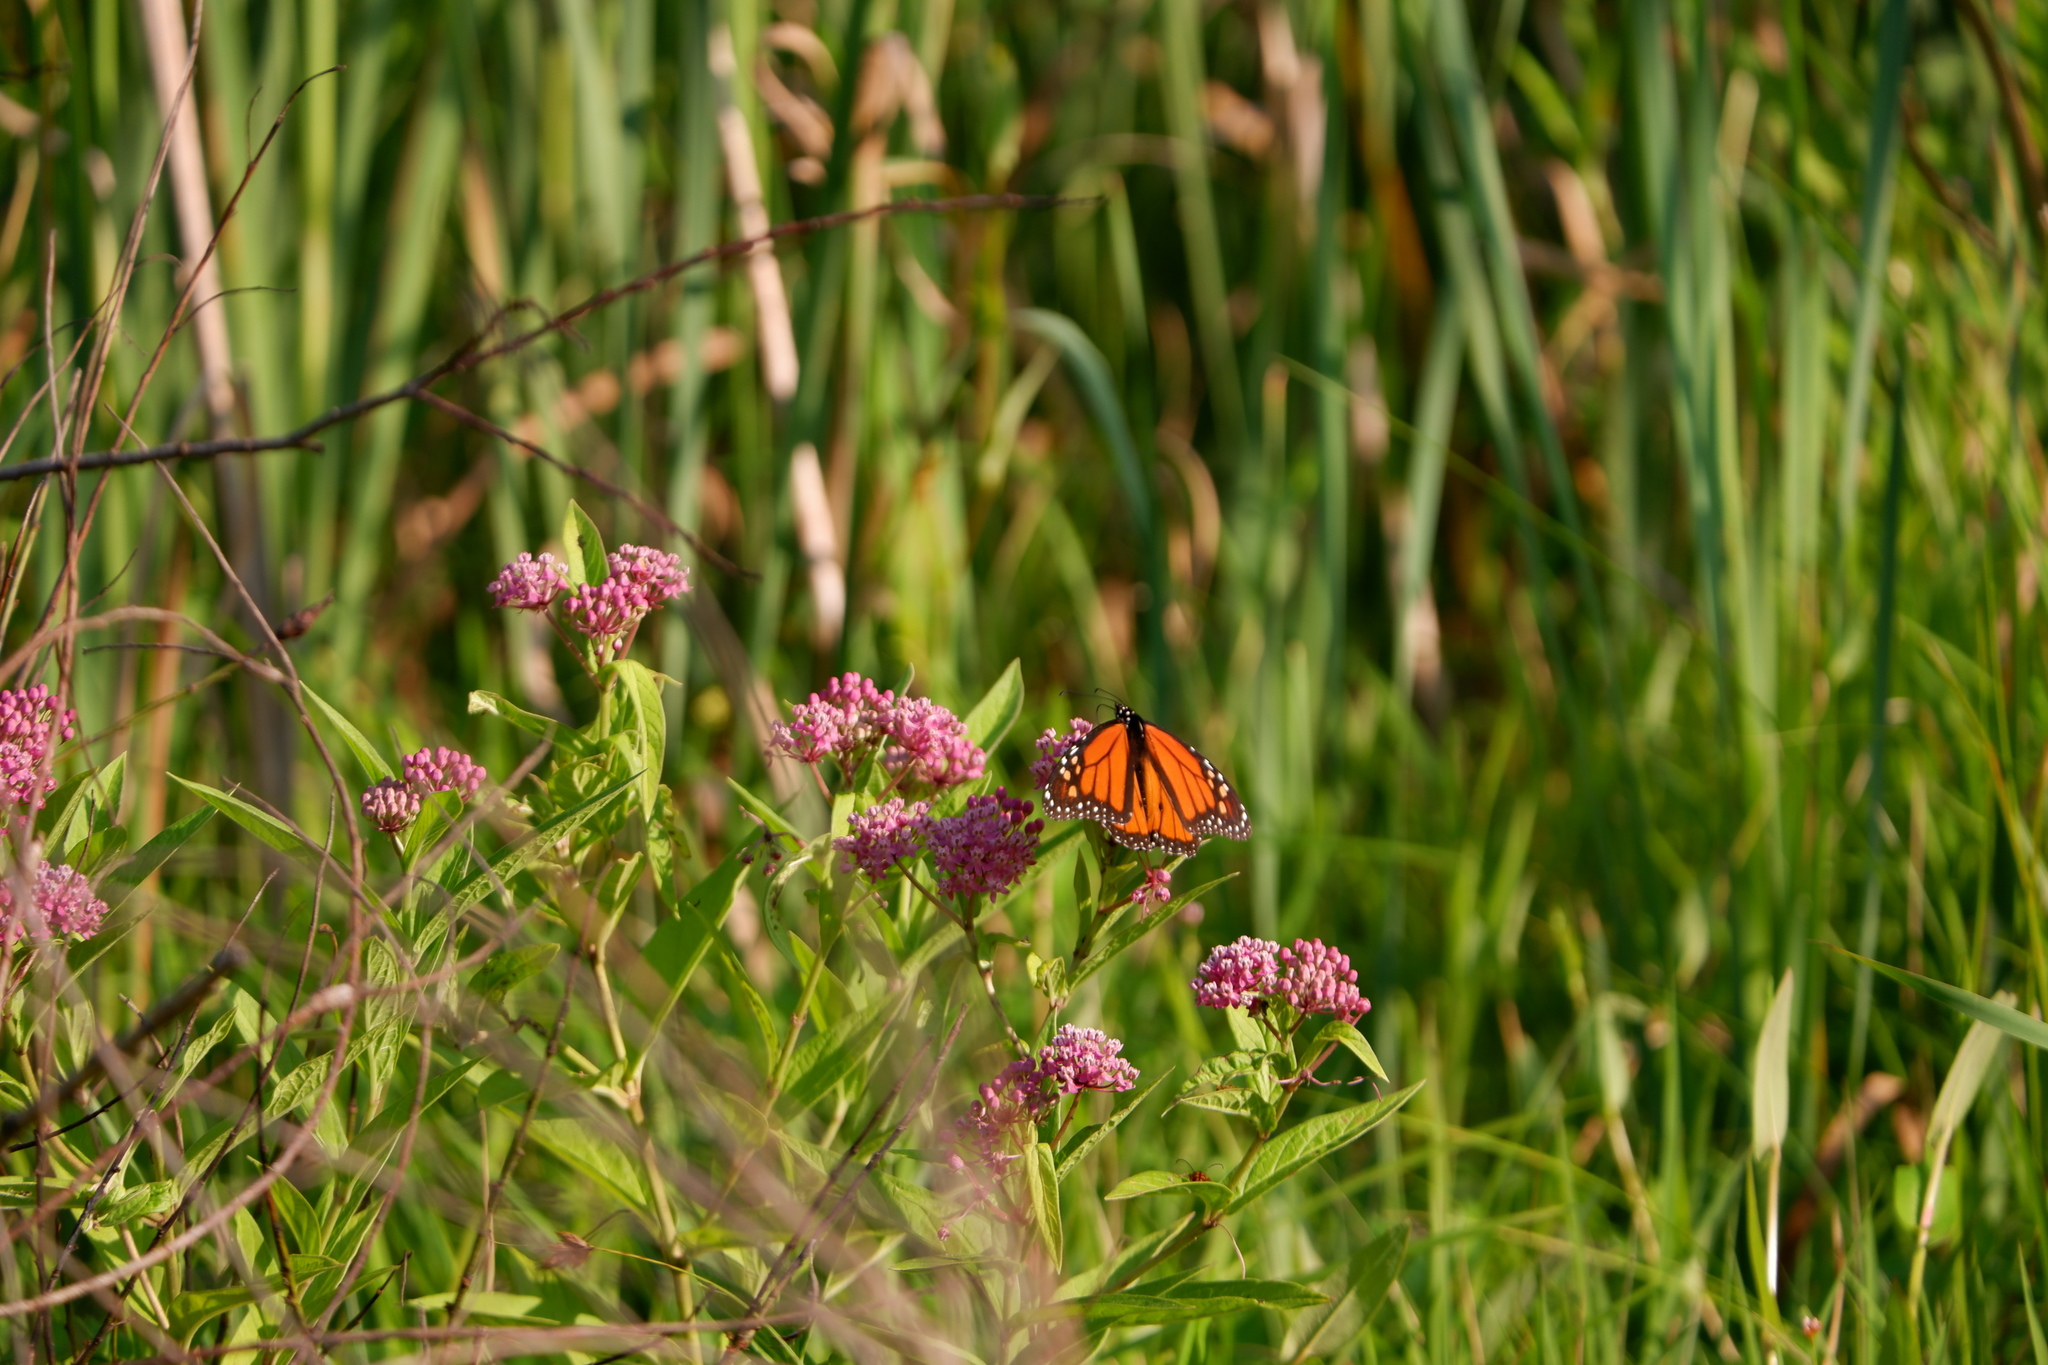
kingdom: Animalia
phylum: Arthropoda
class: Insecta
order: Lepidoptera
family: Nymphalidae
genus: Danaus
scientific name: Danaus plexippus
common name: Monarch
